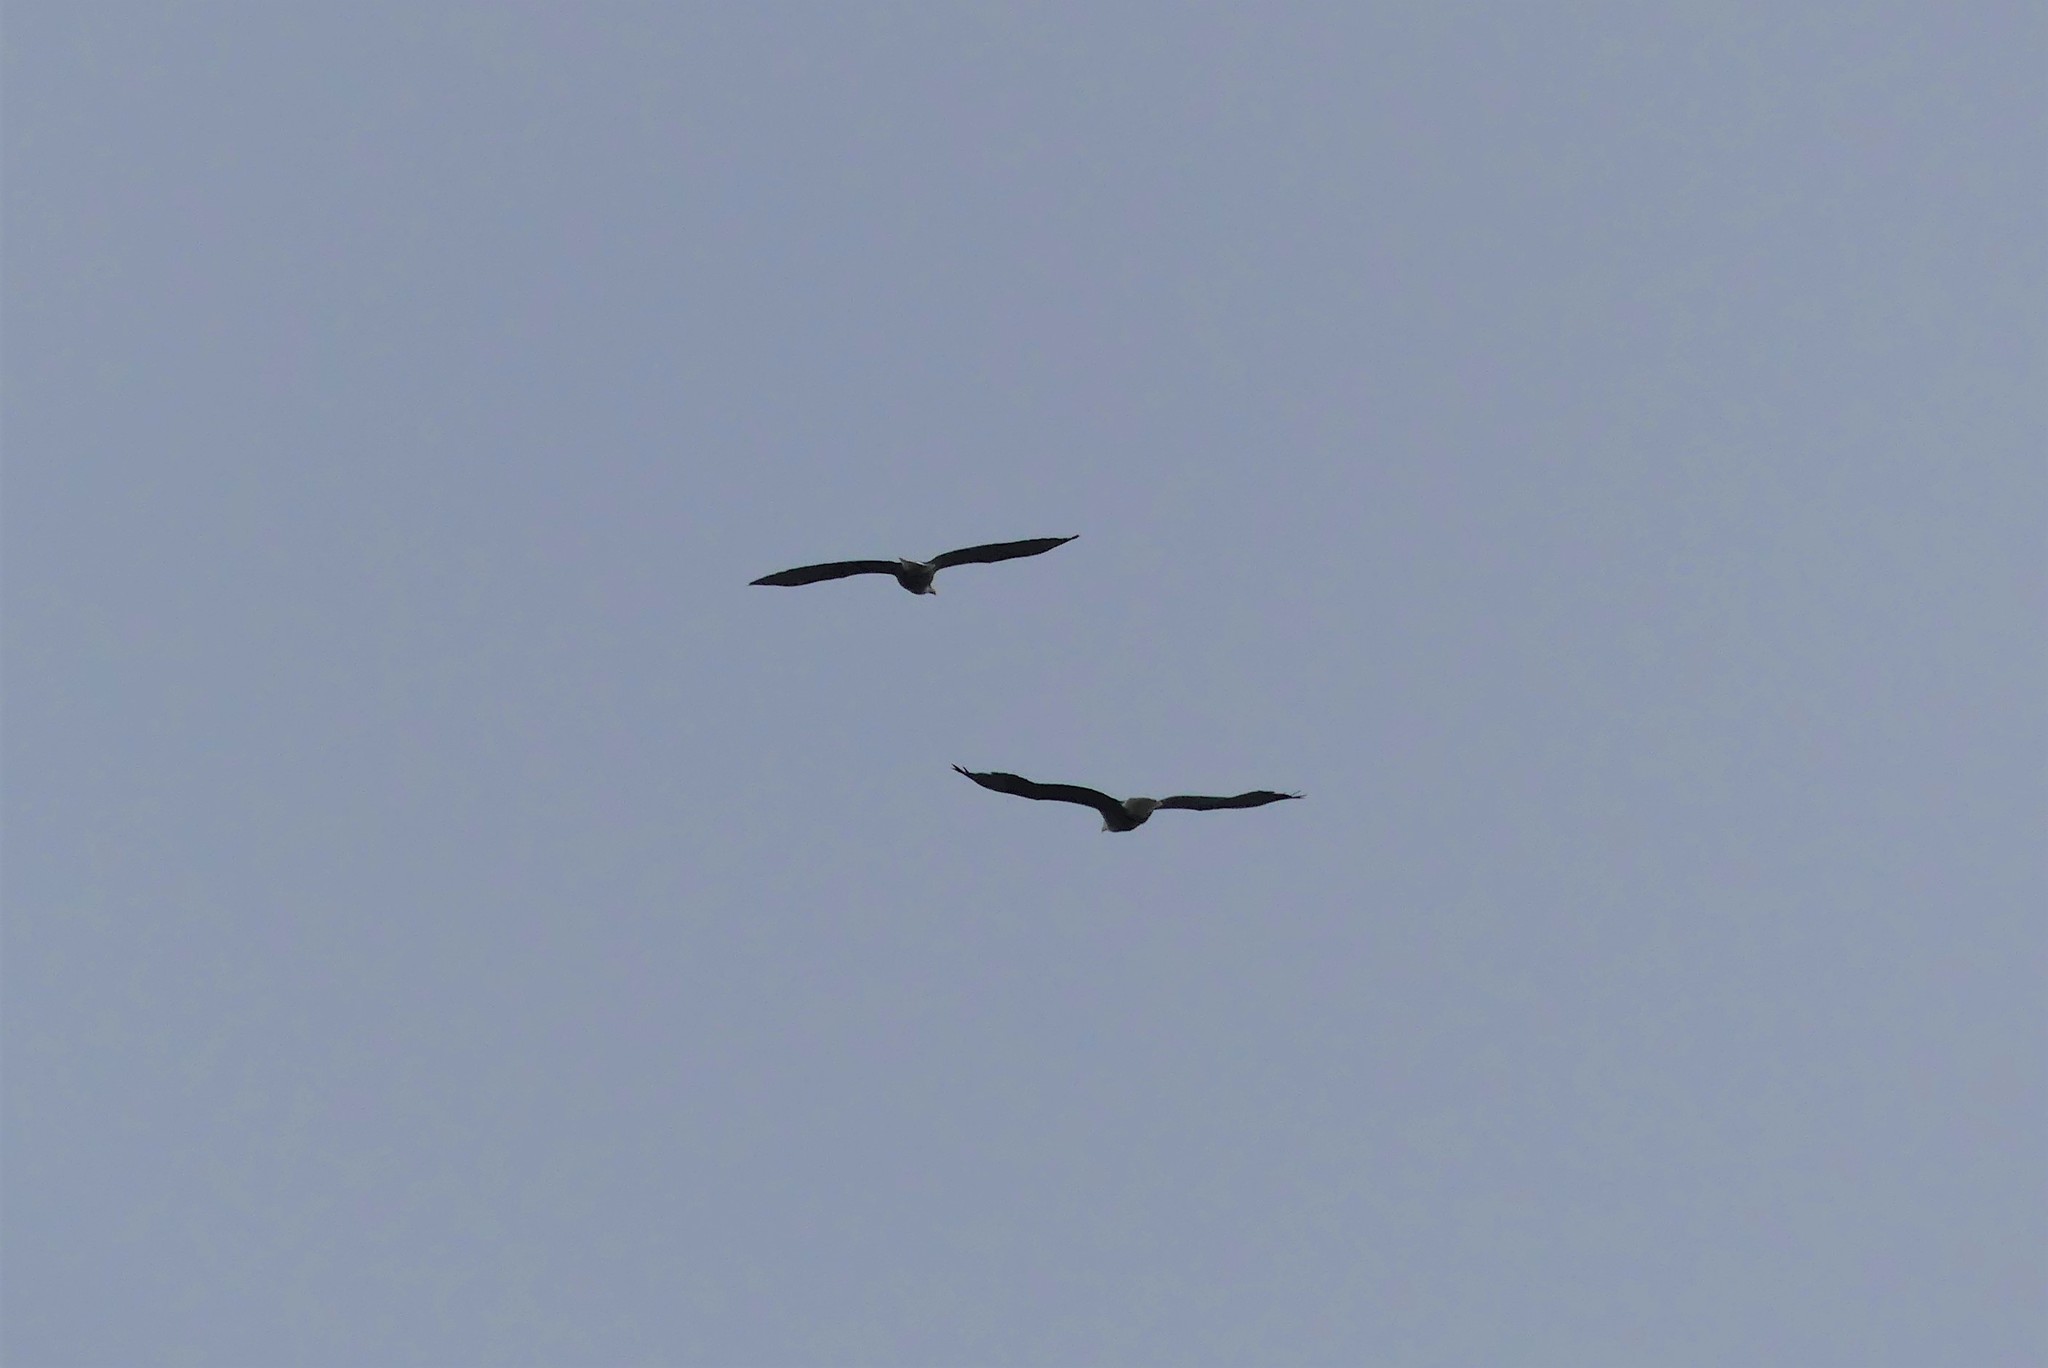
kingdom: Animalia
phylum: Chordata
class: Aves
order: Accipitriformes
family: Accipitridae
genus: Haliaeetus
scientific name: Haliaeetus leucocephalus
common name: Bald eagle
